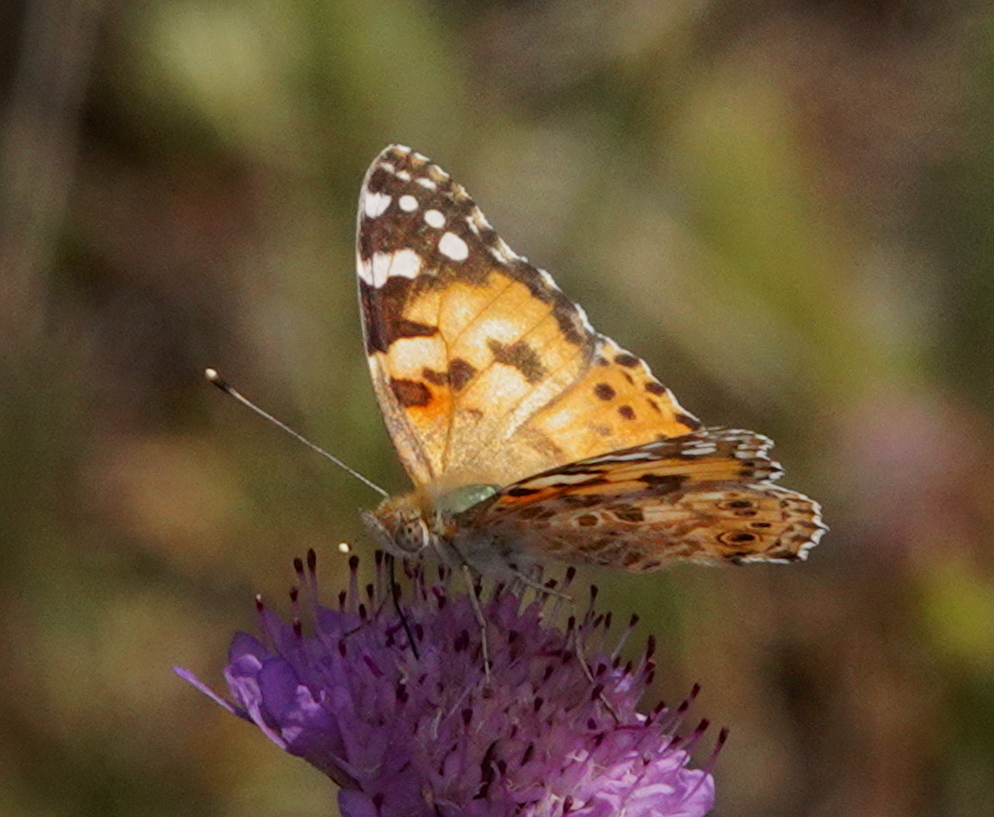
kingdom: Animalia
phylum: Arthropoda
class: Insecta
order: Lepidoptera
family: Nymphalidae
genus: Vanessa
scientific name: Vanessa cardui
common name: Painted lady
